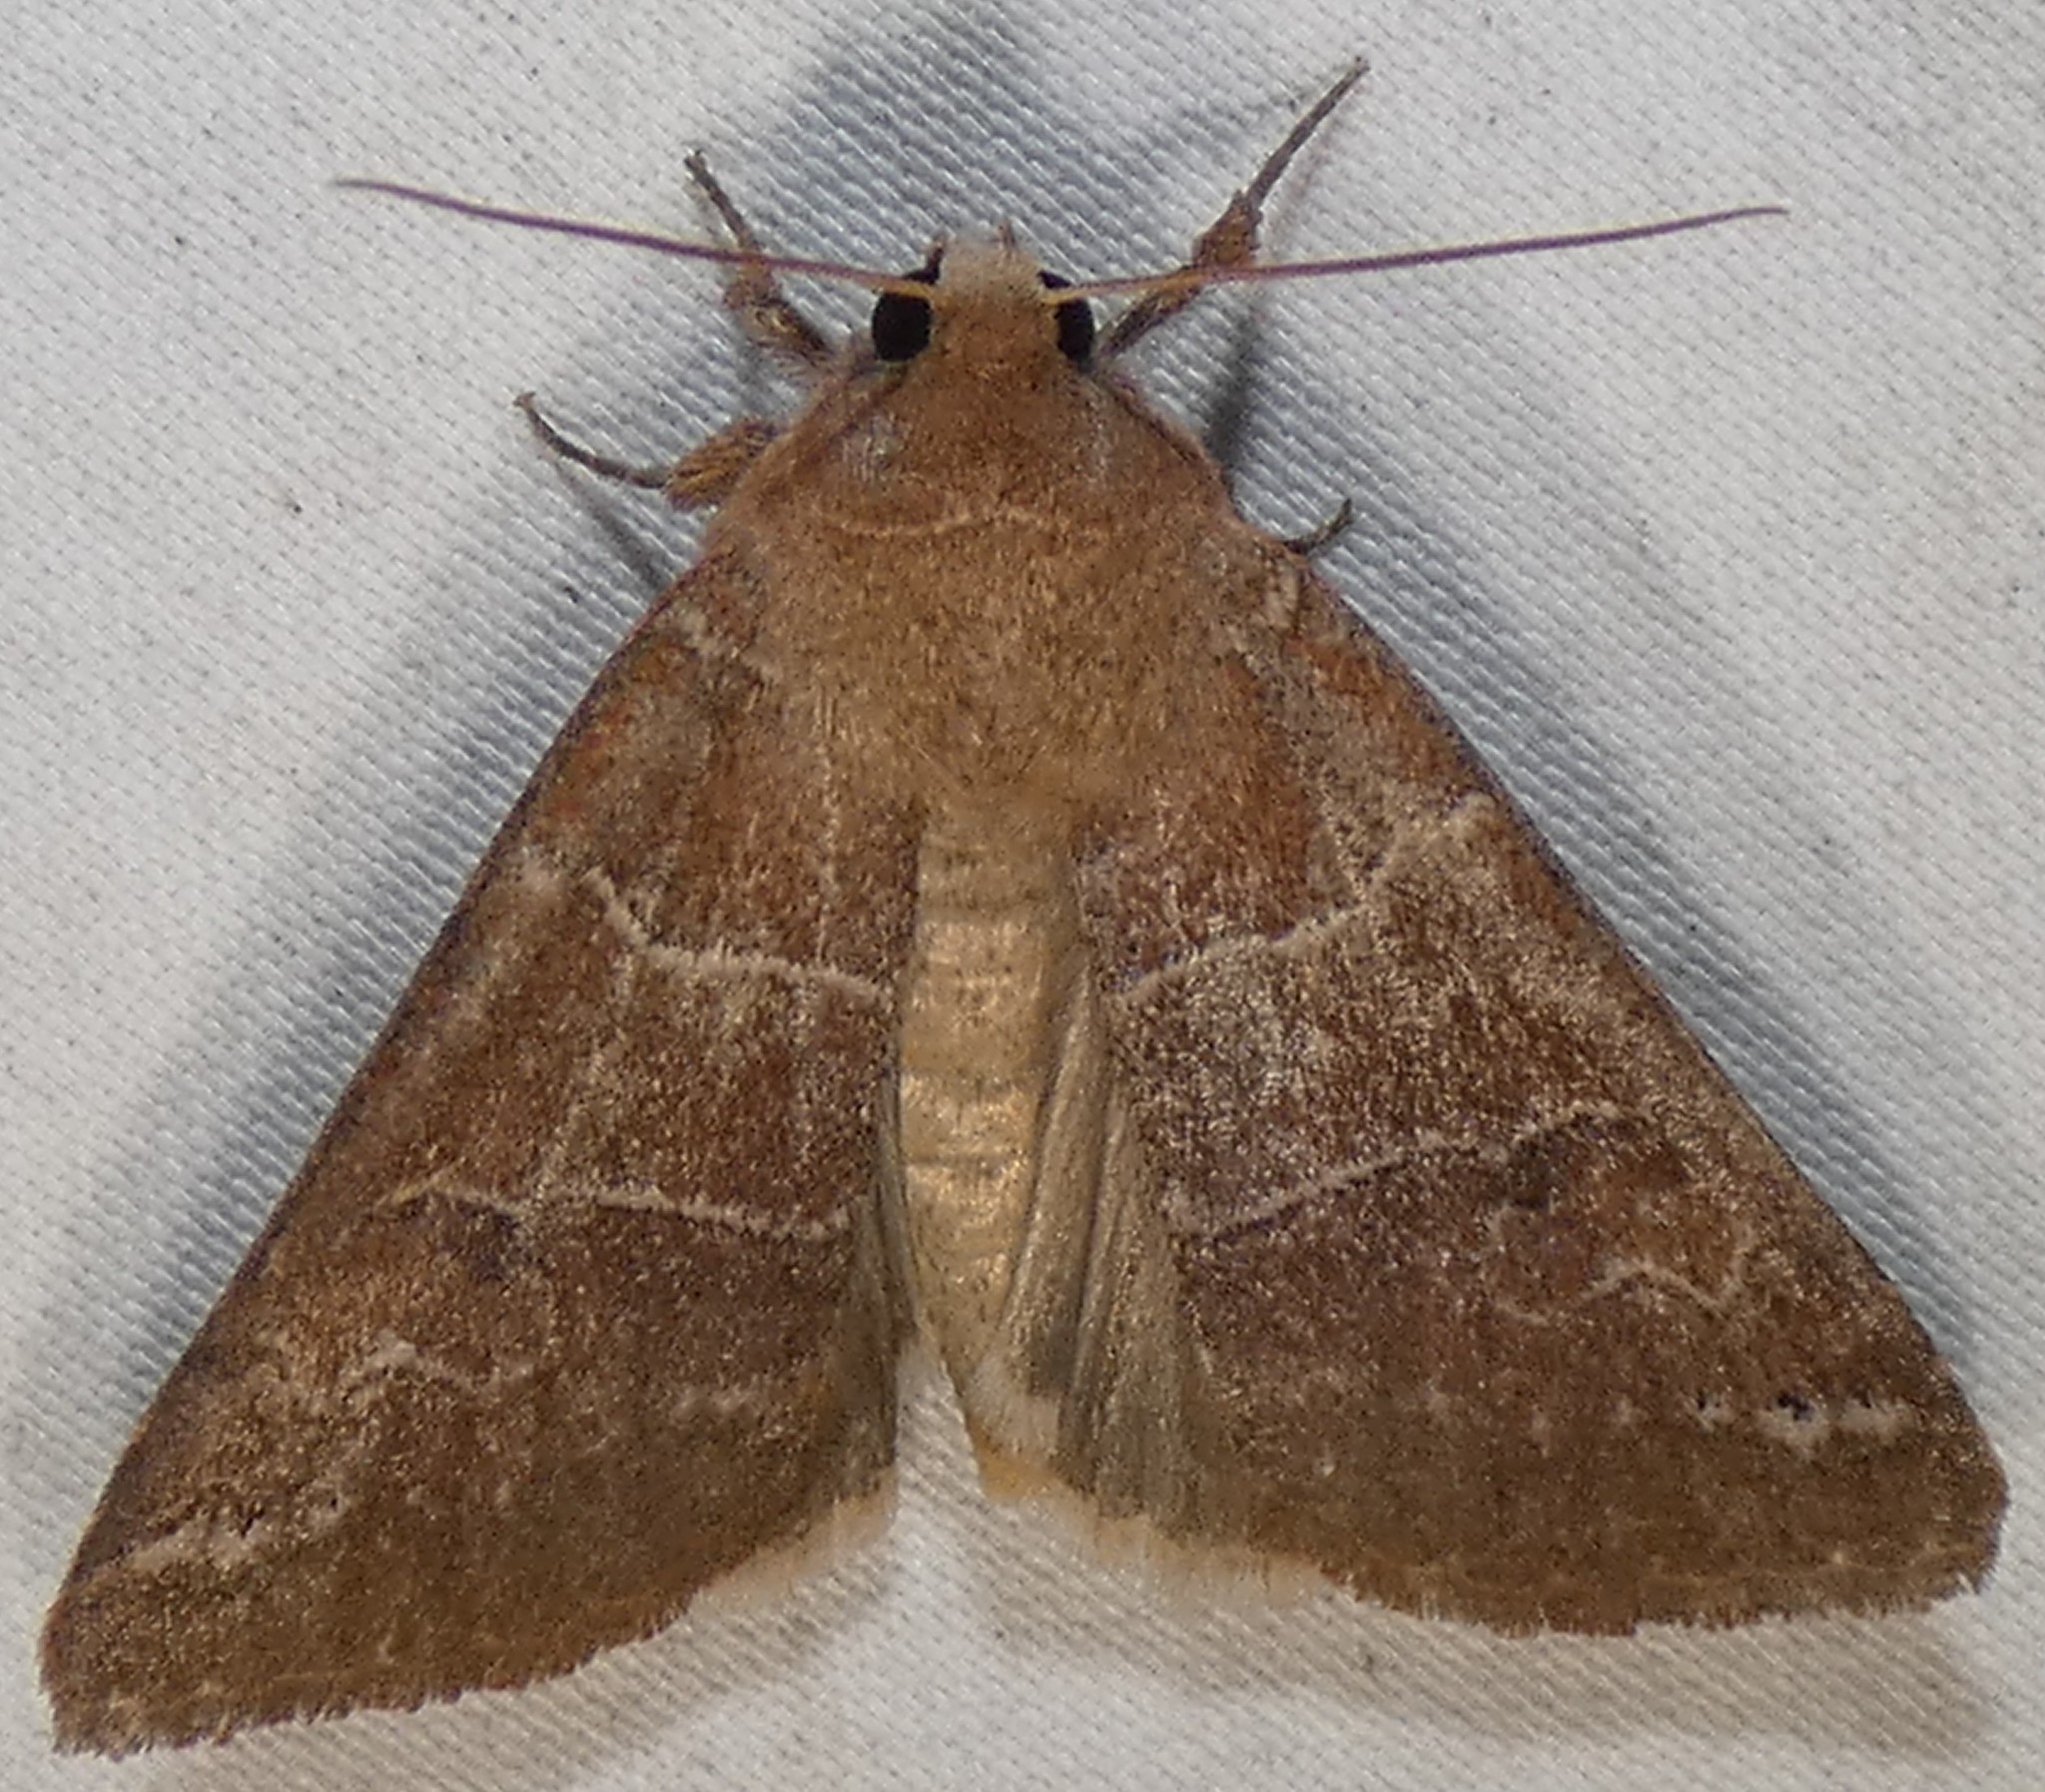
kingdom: Animalia
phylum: Arthropoda
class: Insecta
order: Lepidoptera
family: Erebidae
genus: Cissusa
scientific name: Cissusa spadix
